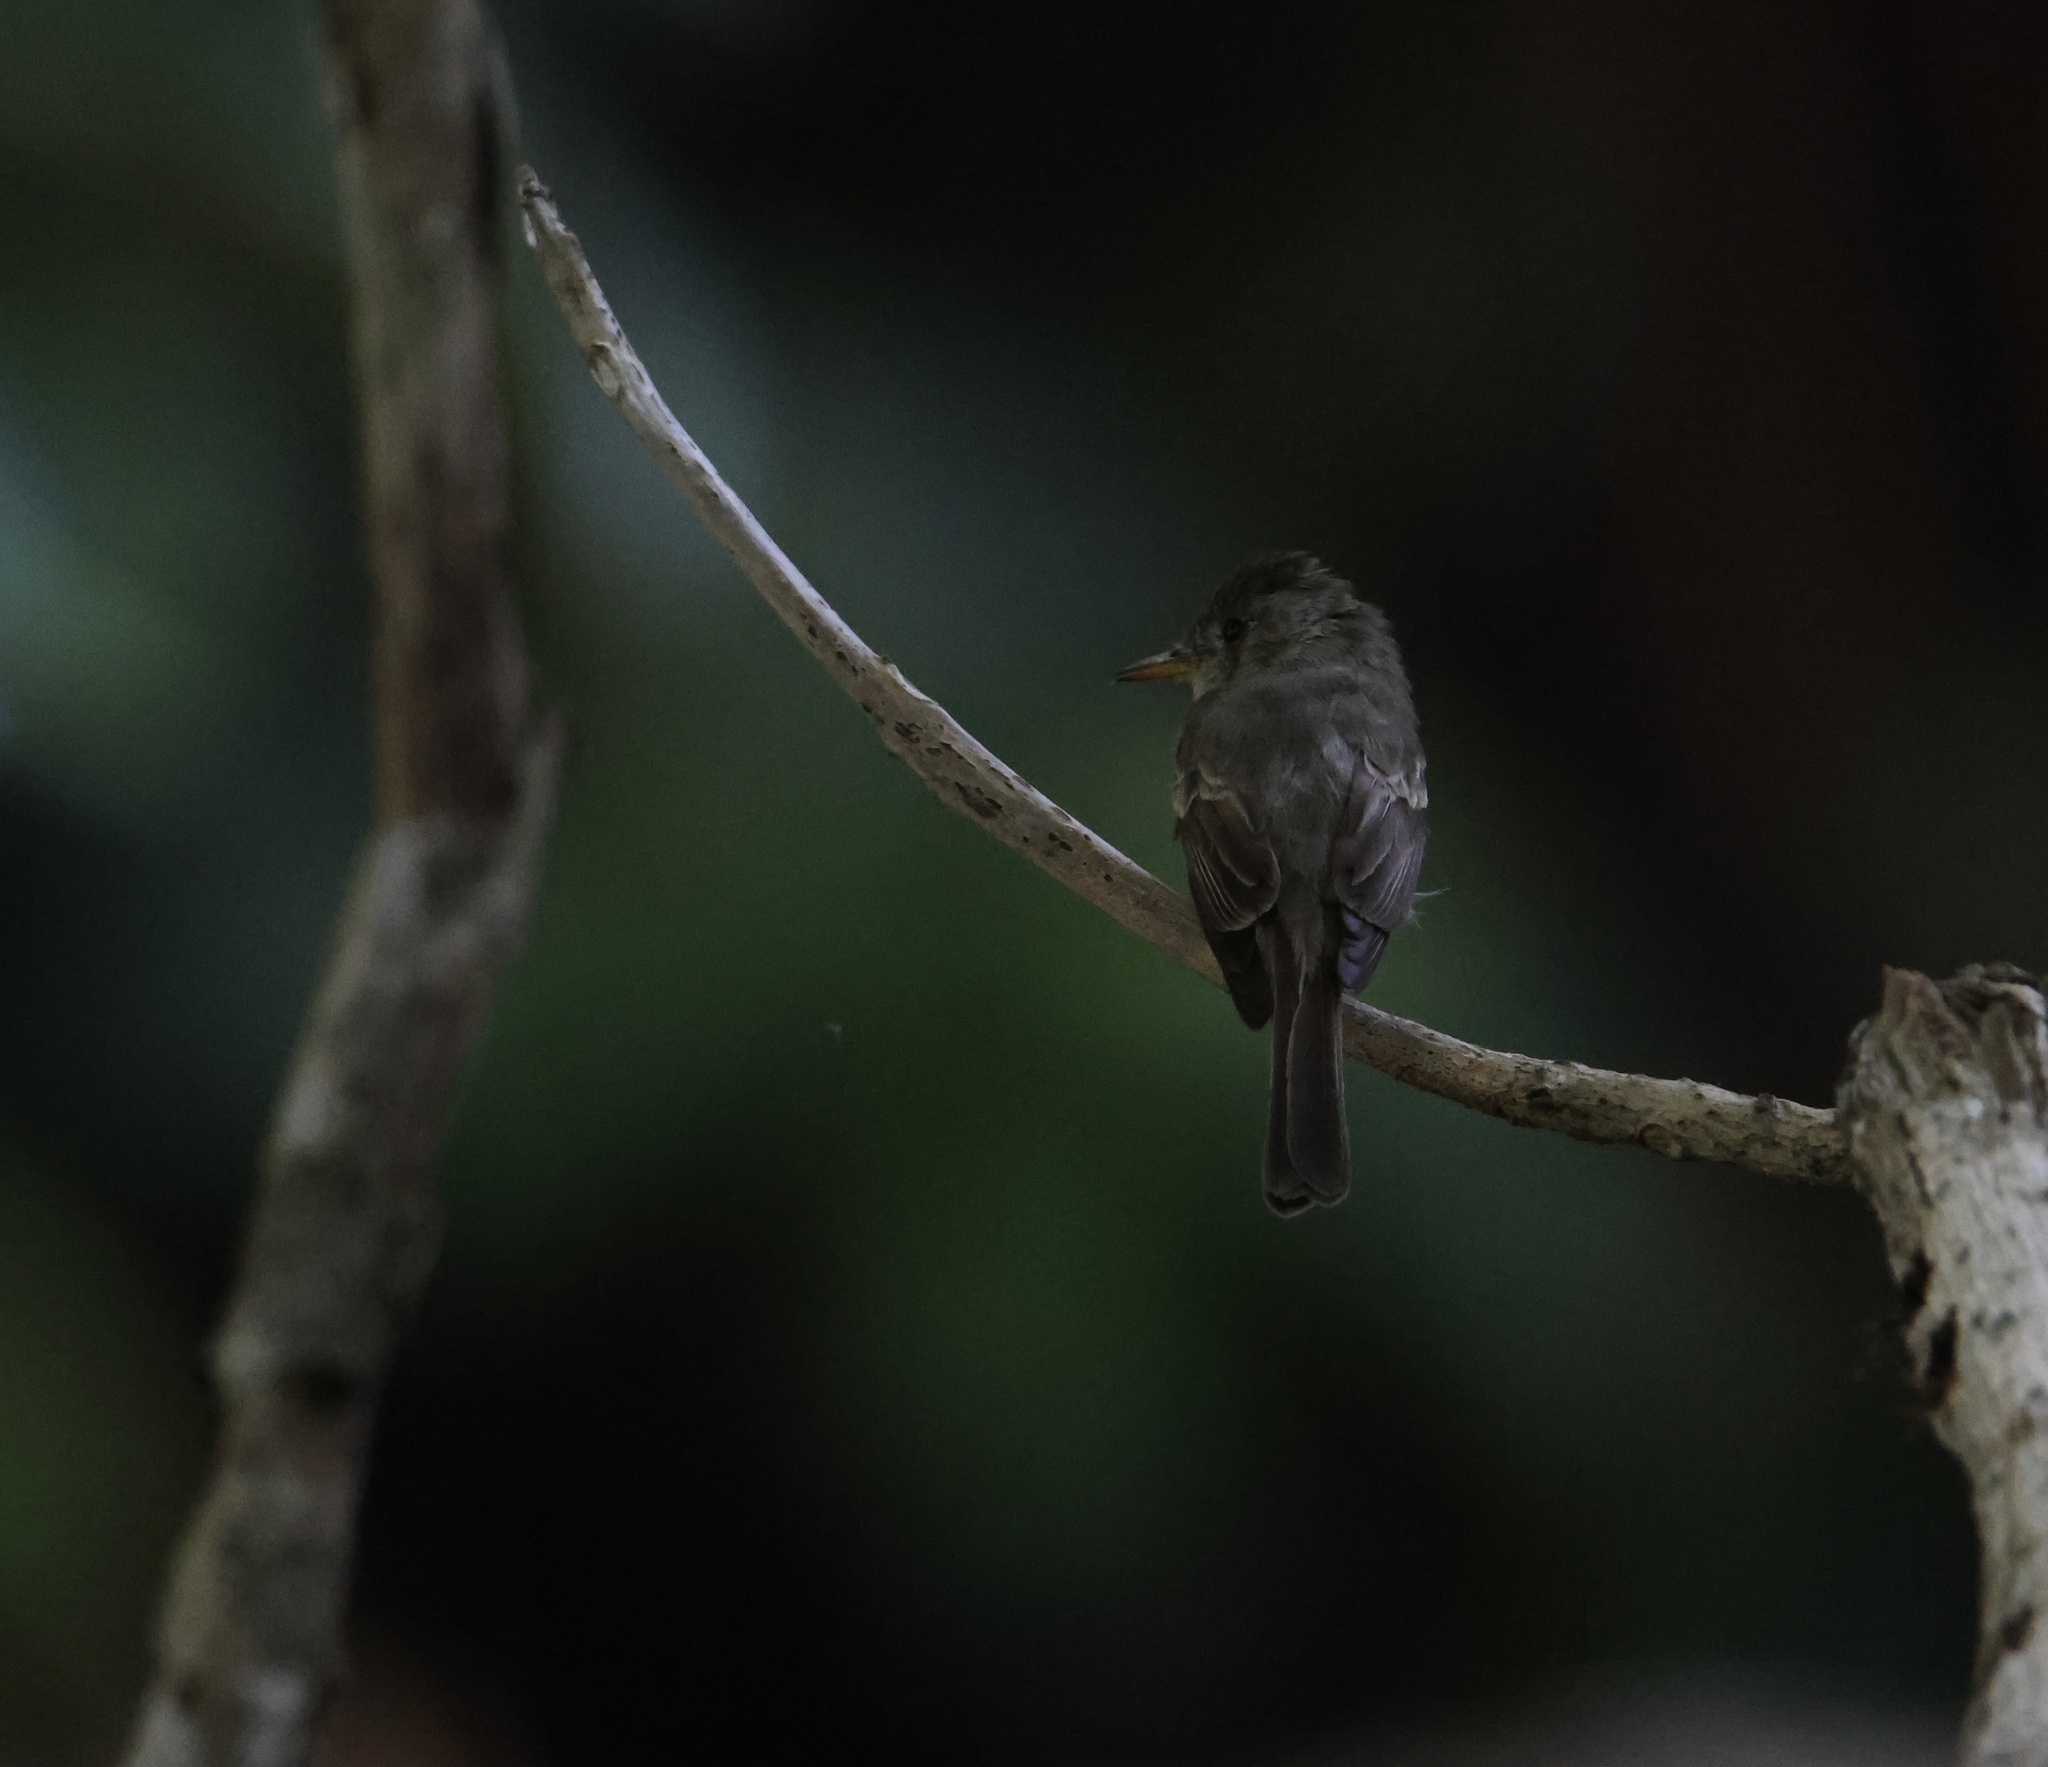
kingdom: Animalia
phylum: Chordata
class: Aves
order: Passeriformes
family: Tyrannidae
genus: Contopus
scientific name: Contopus cinereus
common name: Tropical pewee
